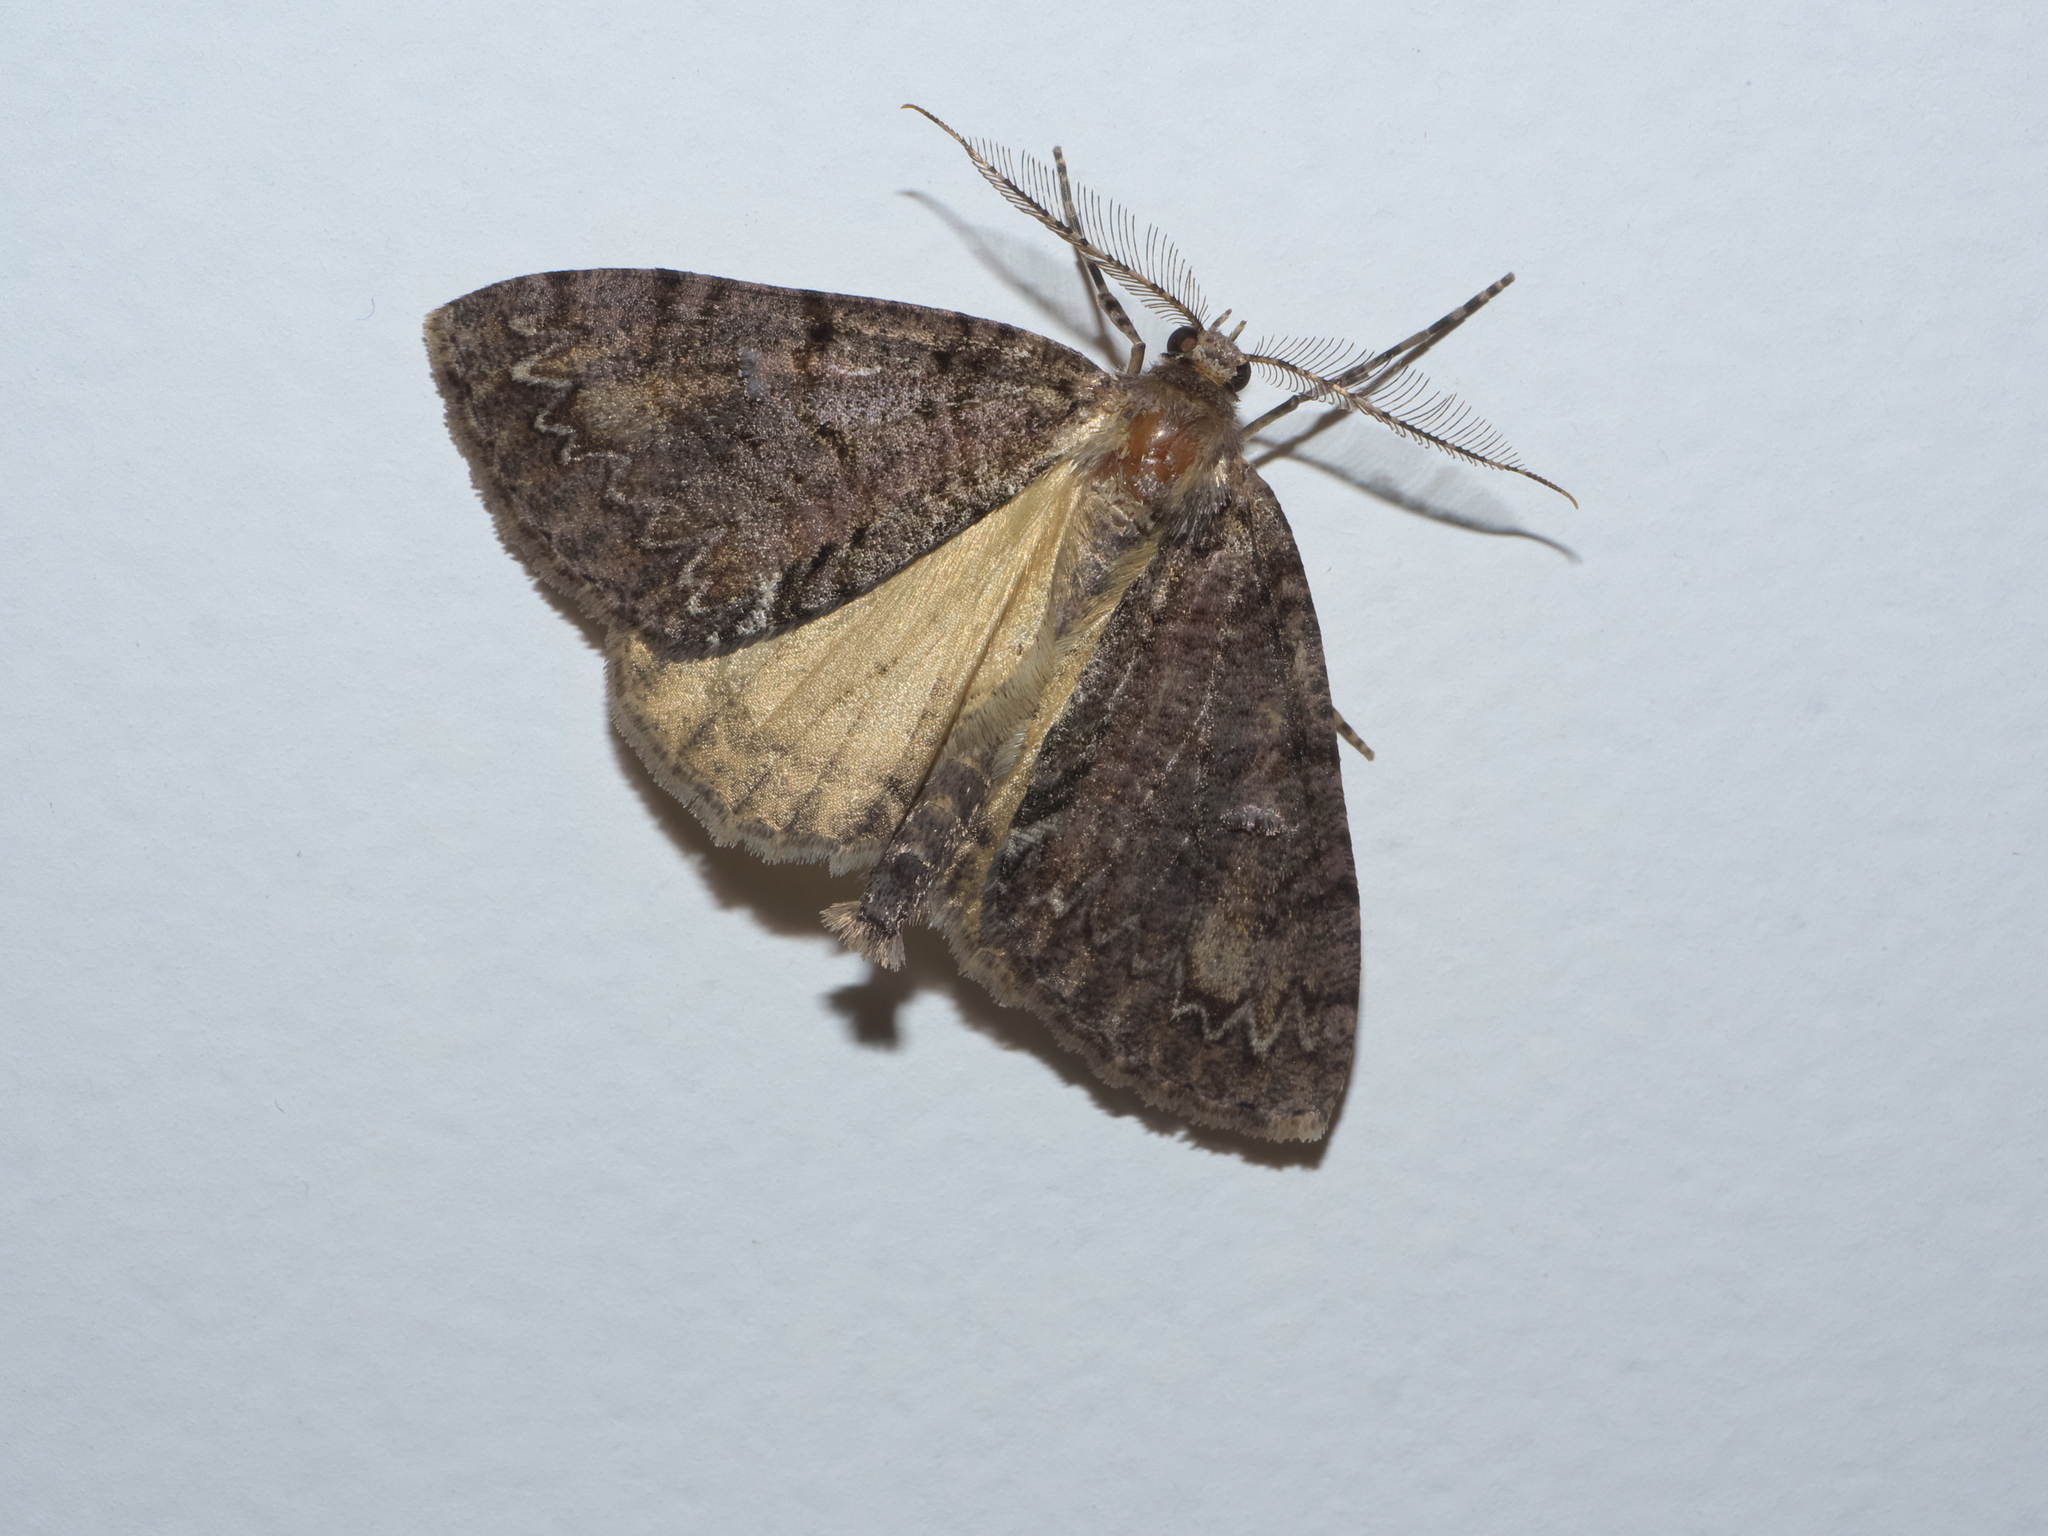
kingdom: Animalia
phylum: Arthropoda
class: Insecta
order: Lepidoptera
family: Geometridae
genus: Pseudocoremia
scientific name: Pseudocoremia suavis
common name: Common forest looper
